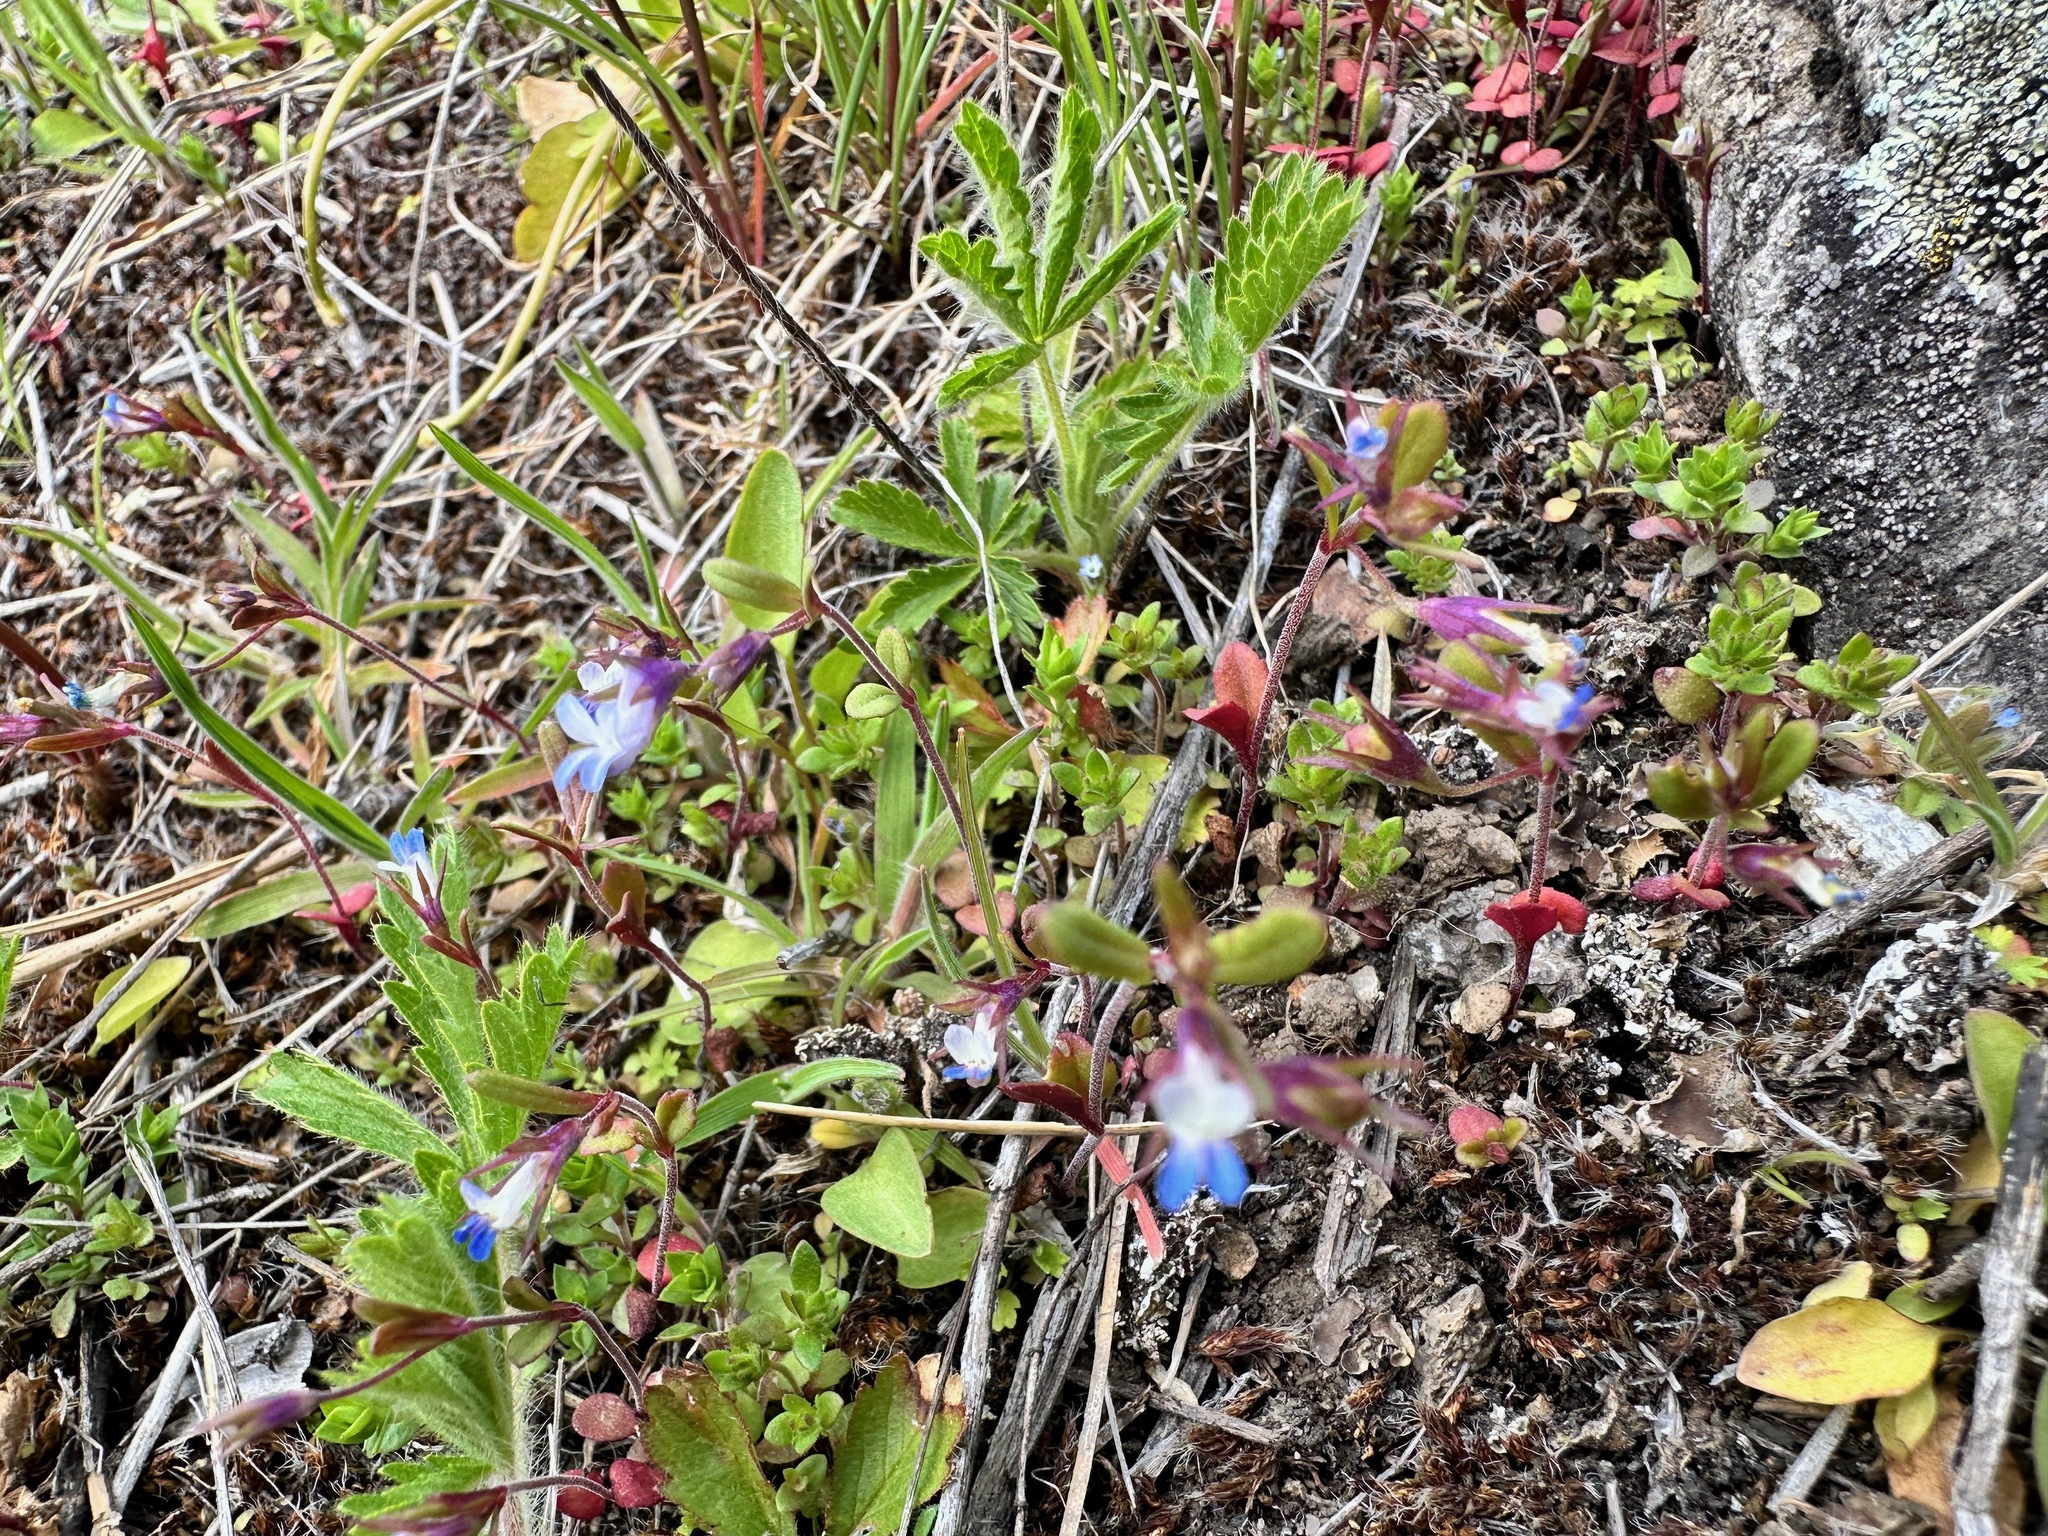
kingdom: Plantae
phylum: Tracheophyta
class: Magnoliopsida
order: Lamiales
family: Plantaginaceae
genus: Collinsia
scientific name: Collinsia parviflora
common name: Blue-lips
